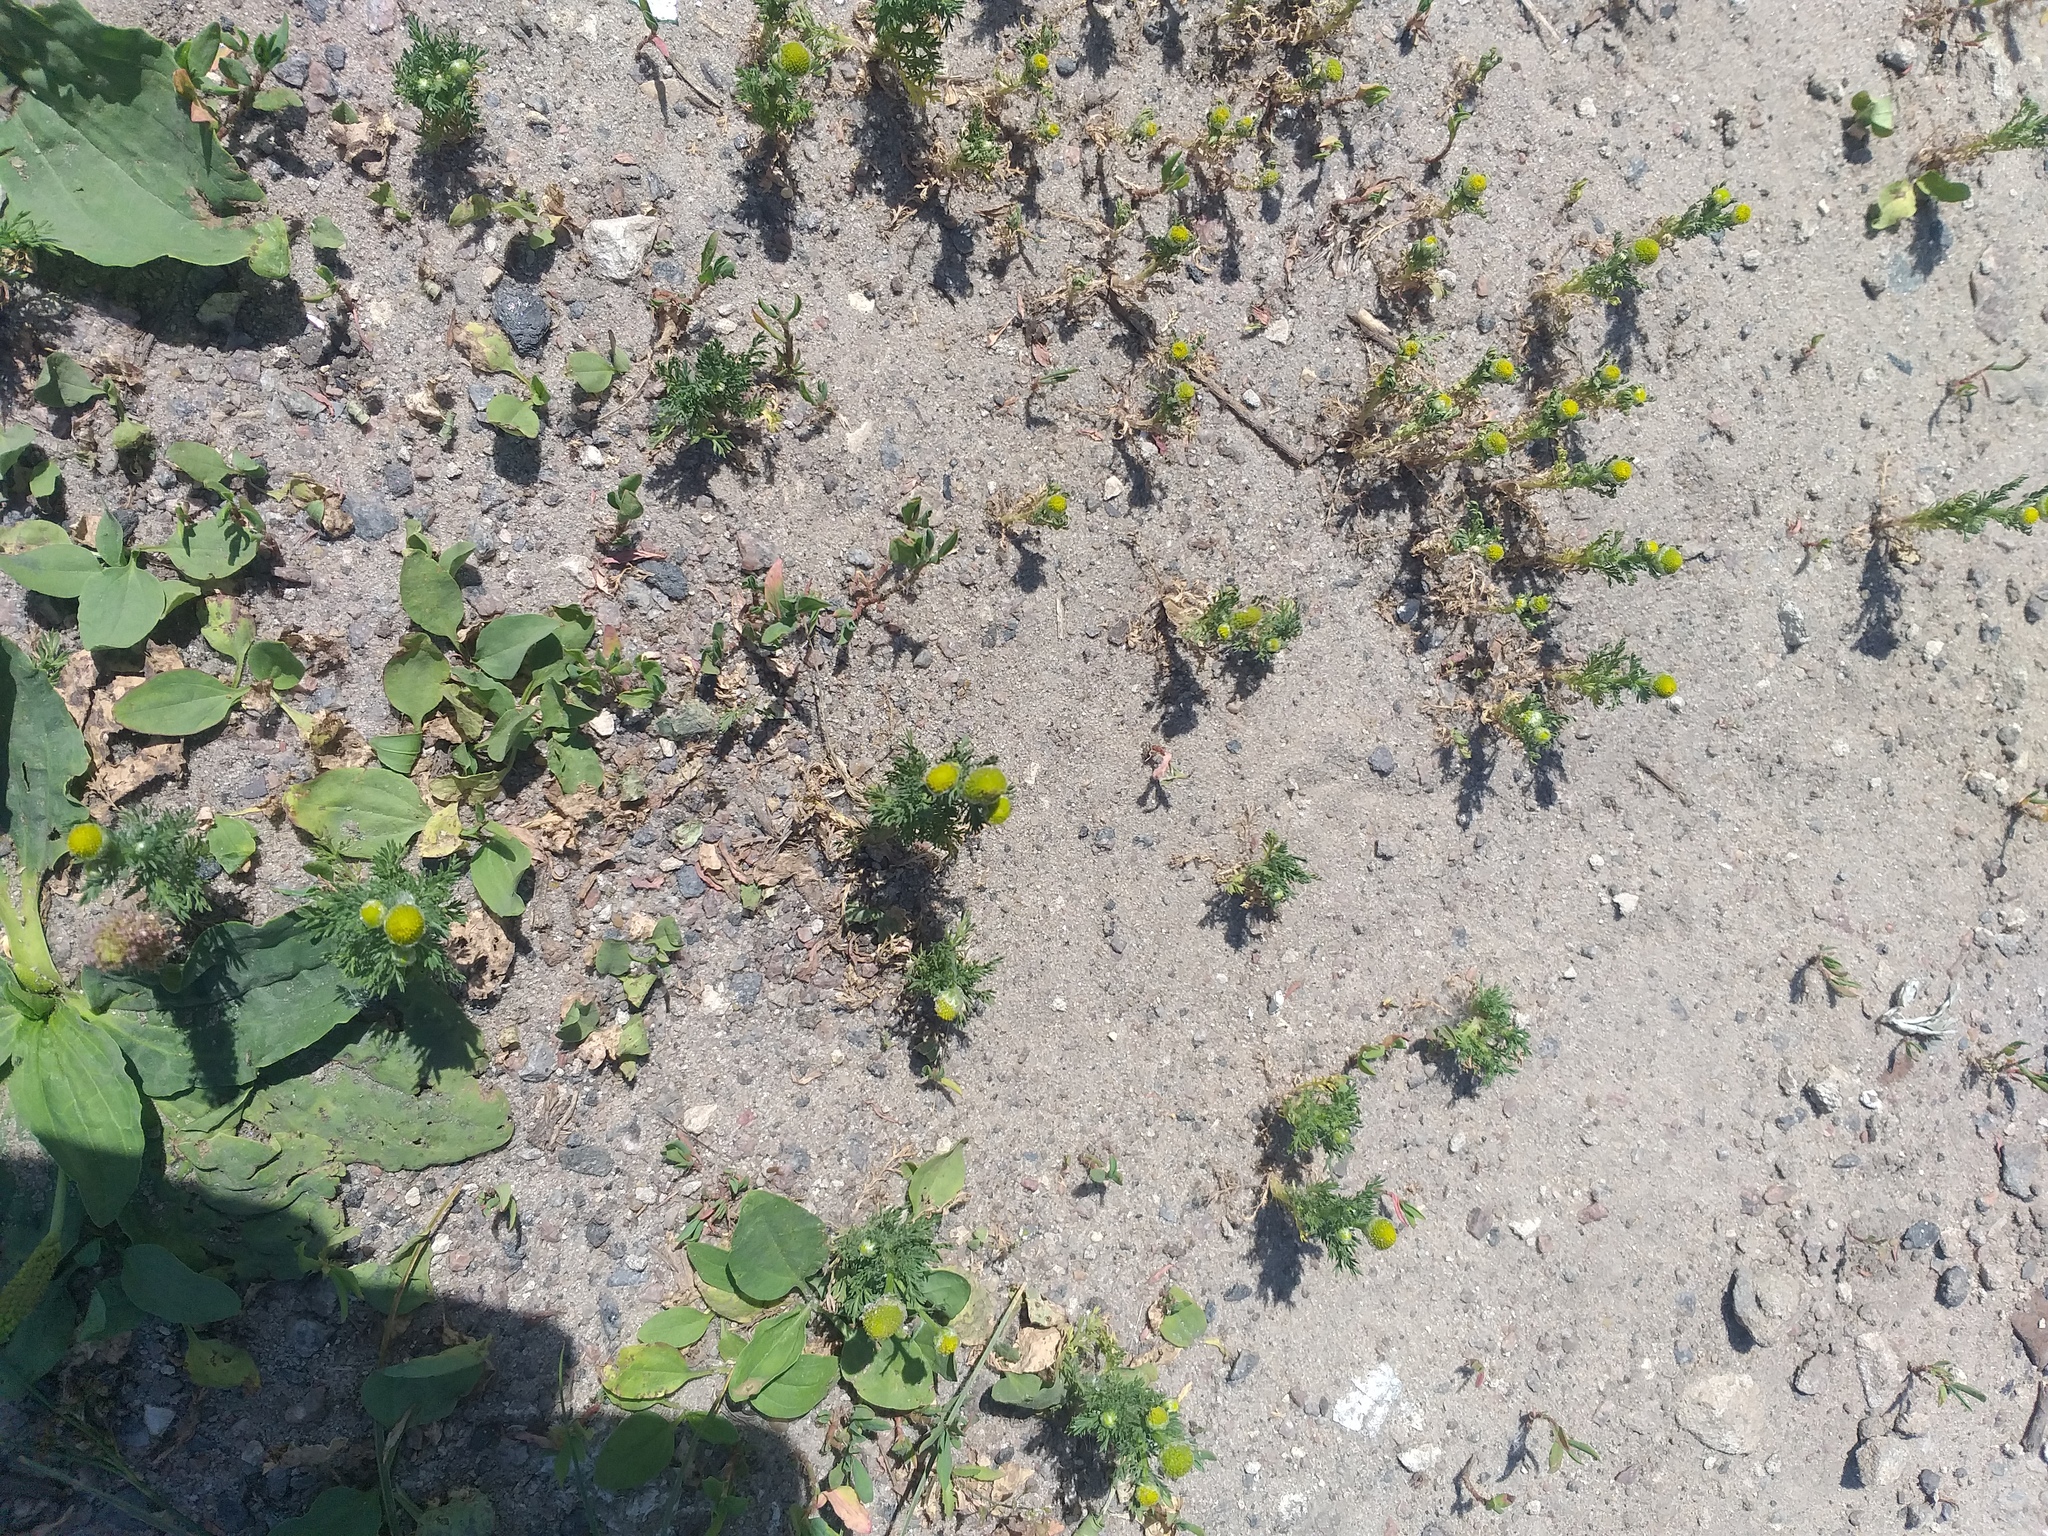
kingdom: Plantae
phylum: Tracheophyta
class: Magnoliopsida
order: Asterales
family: Asteraceae
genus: Matricaria
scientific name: Matricaria discoidea
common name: Disc mayweed
